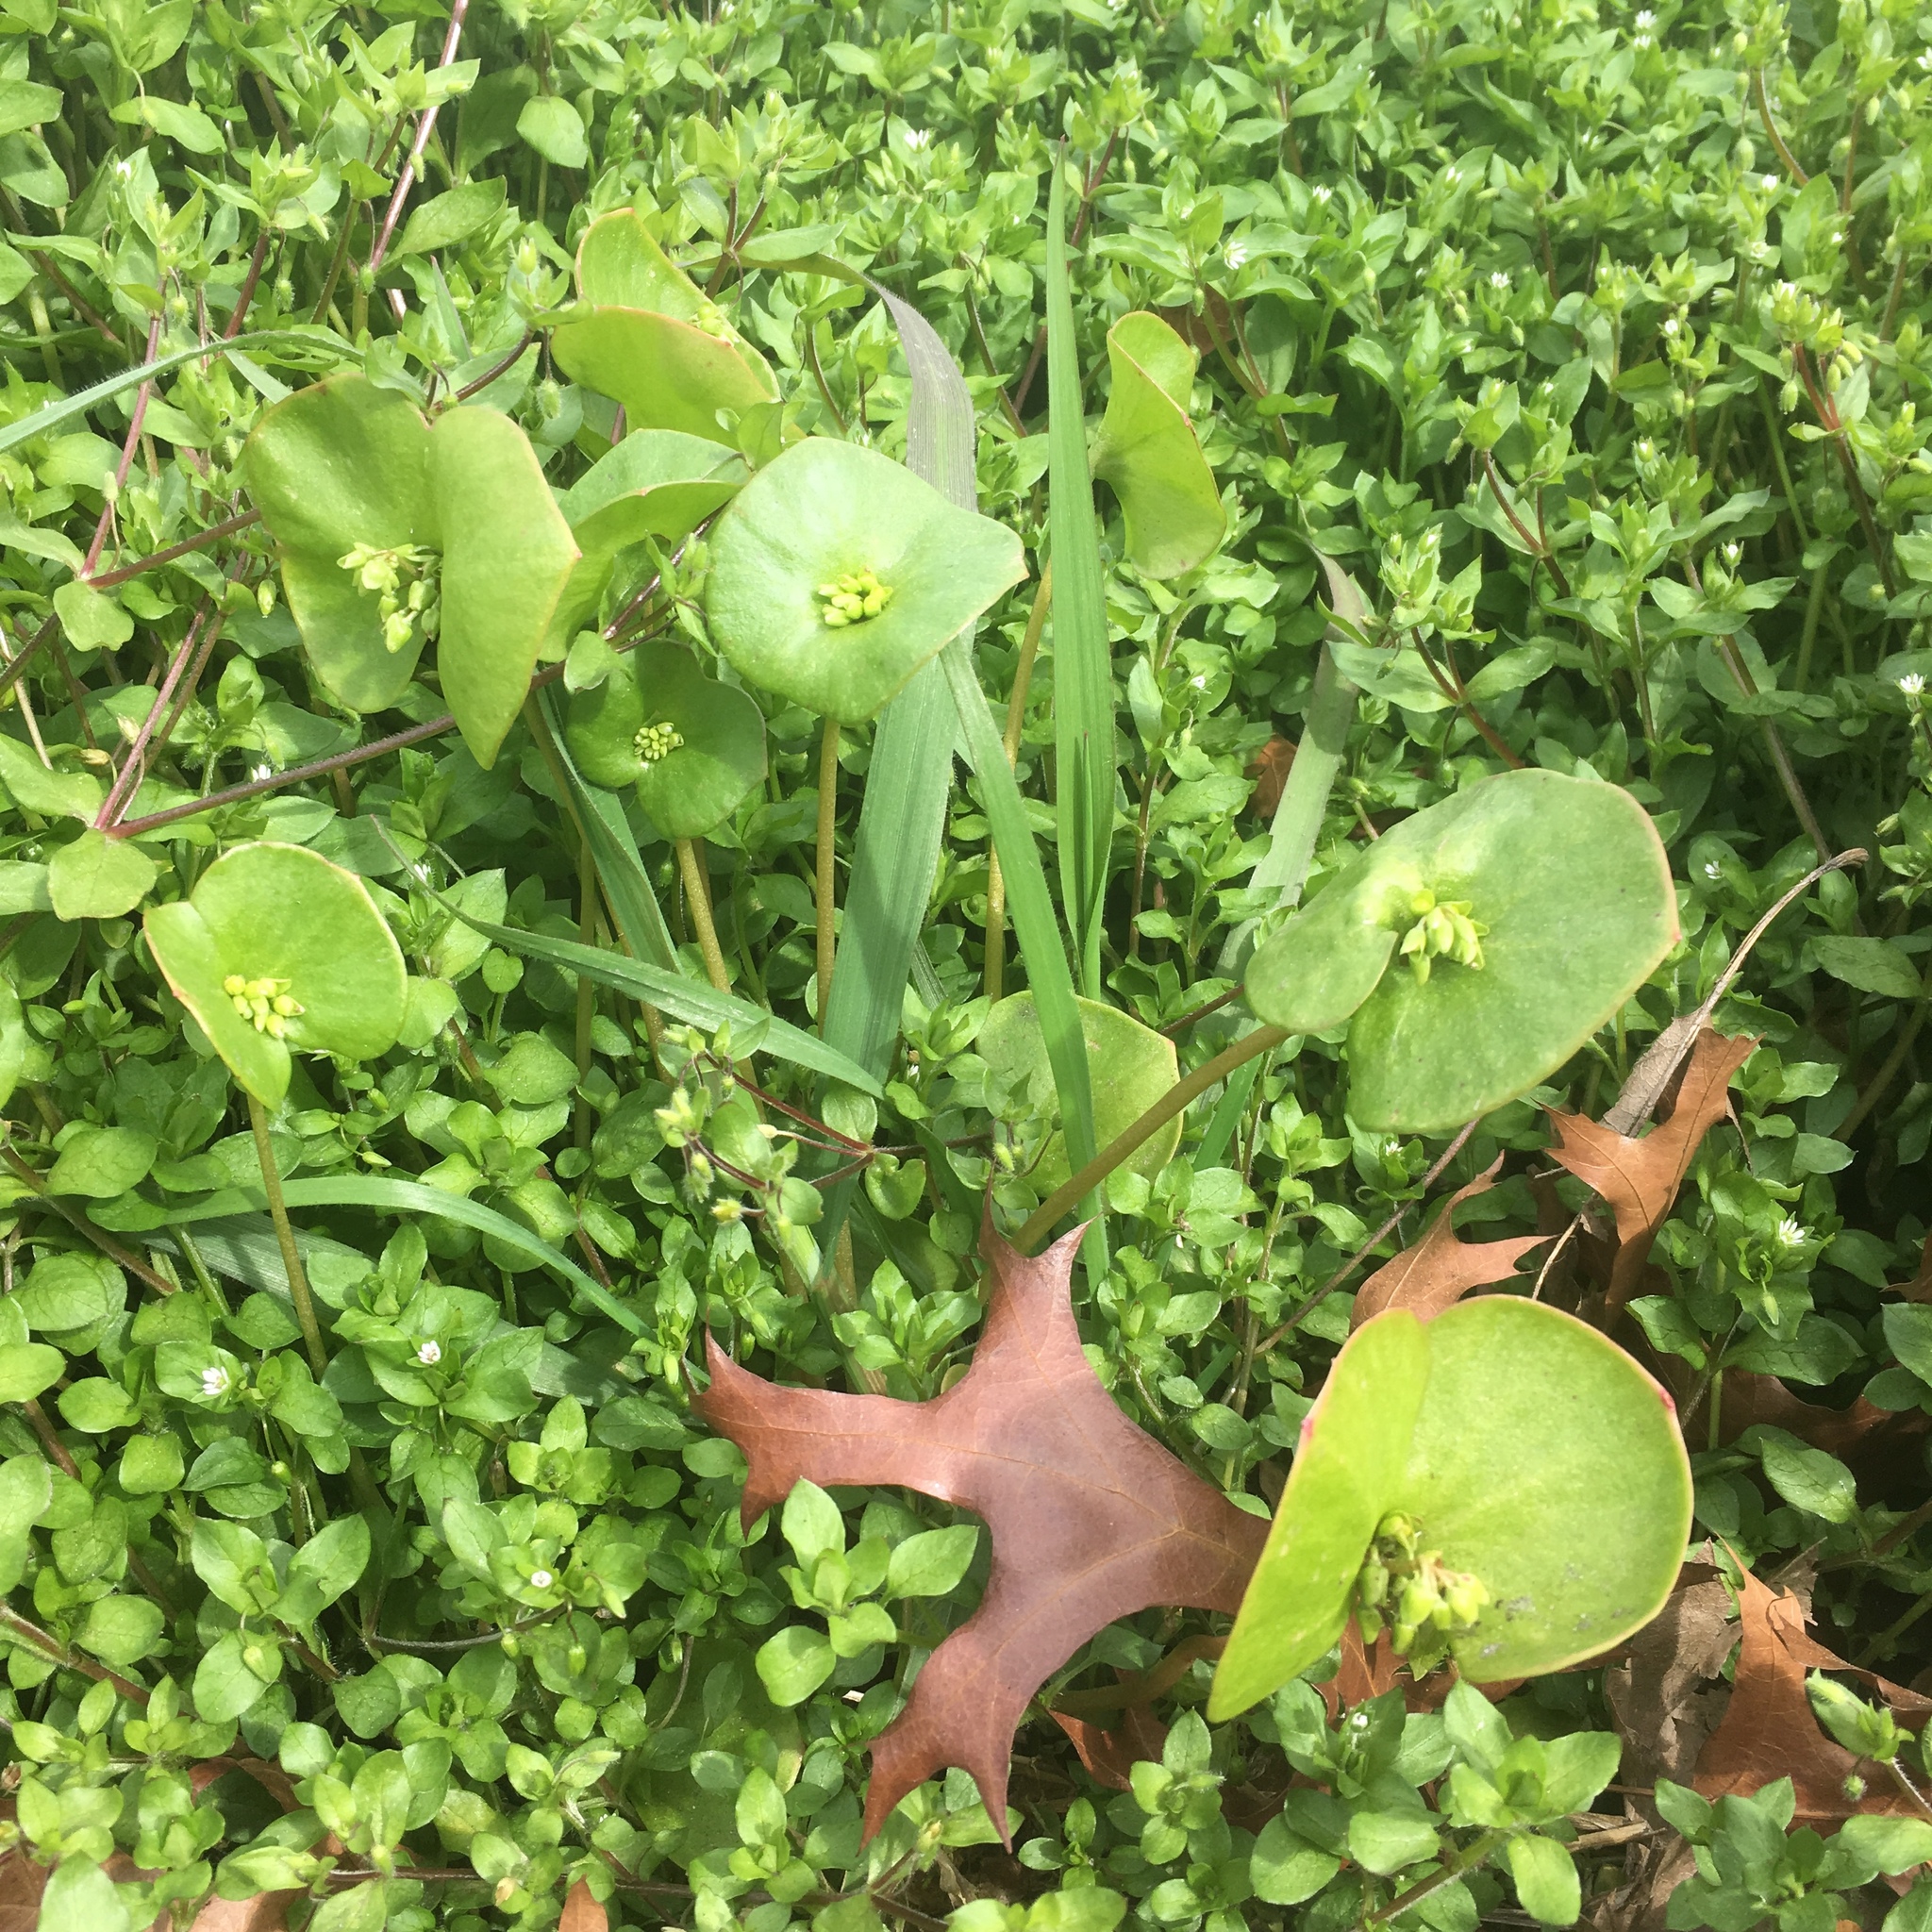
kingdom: Plantae
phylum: Tracheophyta
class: Magnoliopsida
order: Caryophyllales
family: Montiaceae
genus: Claytonia
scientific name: Claytonia perfoliata
